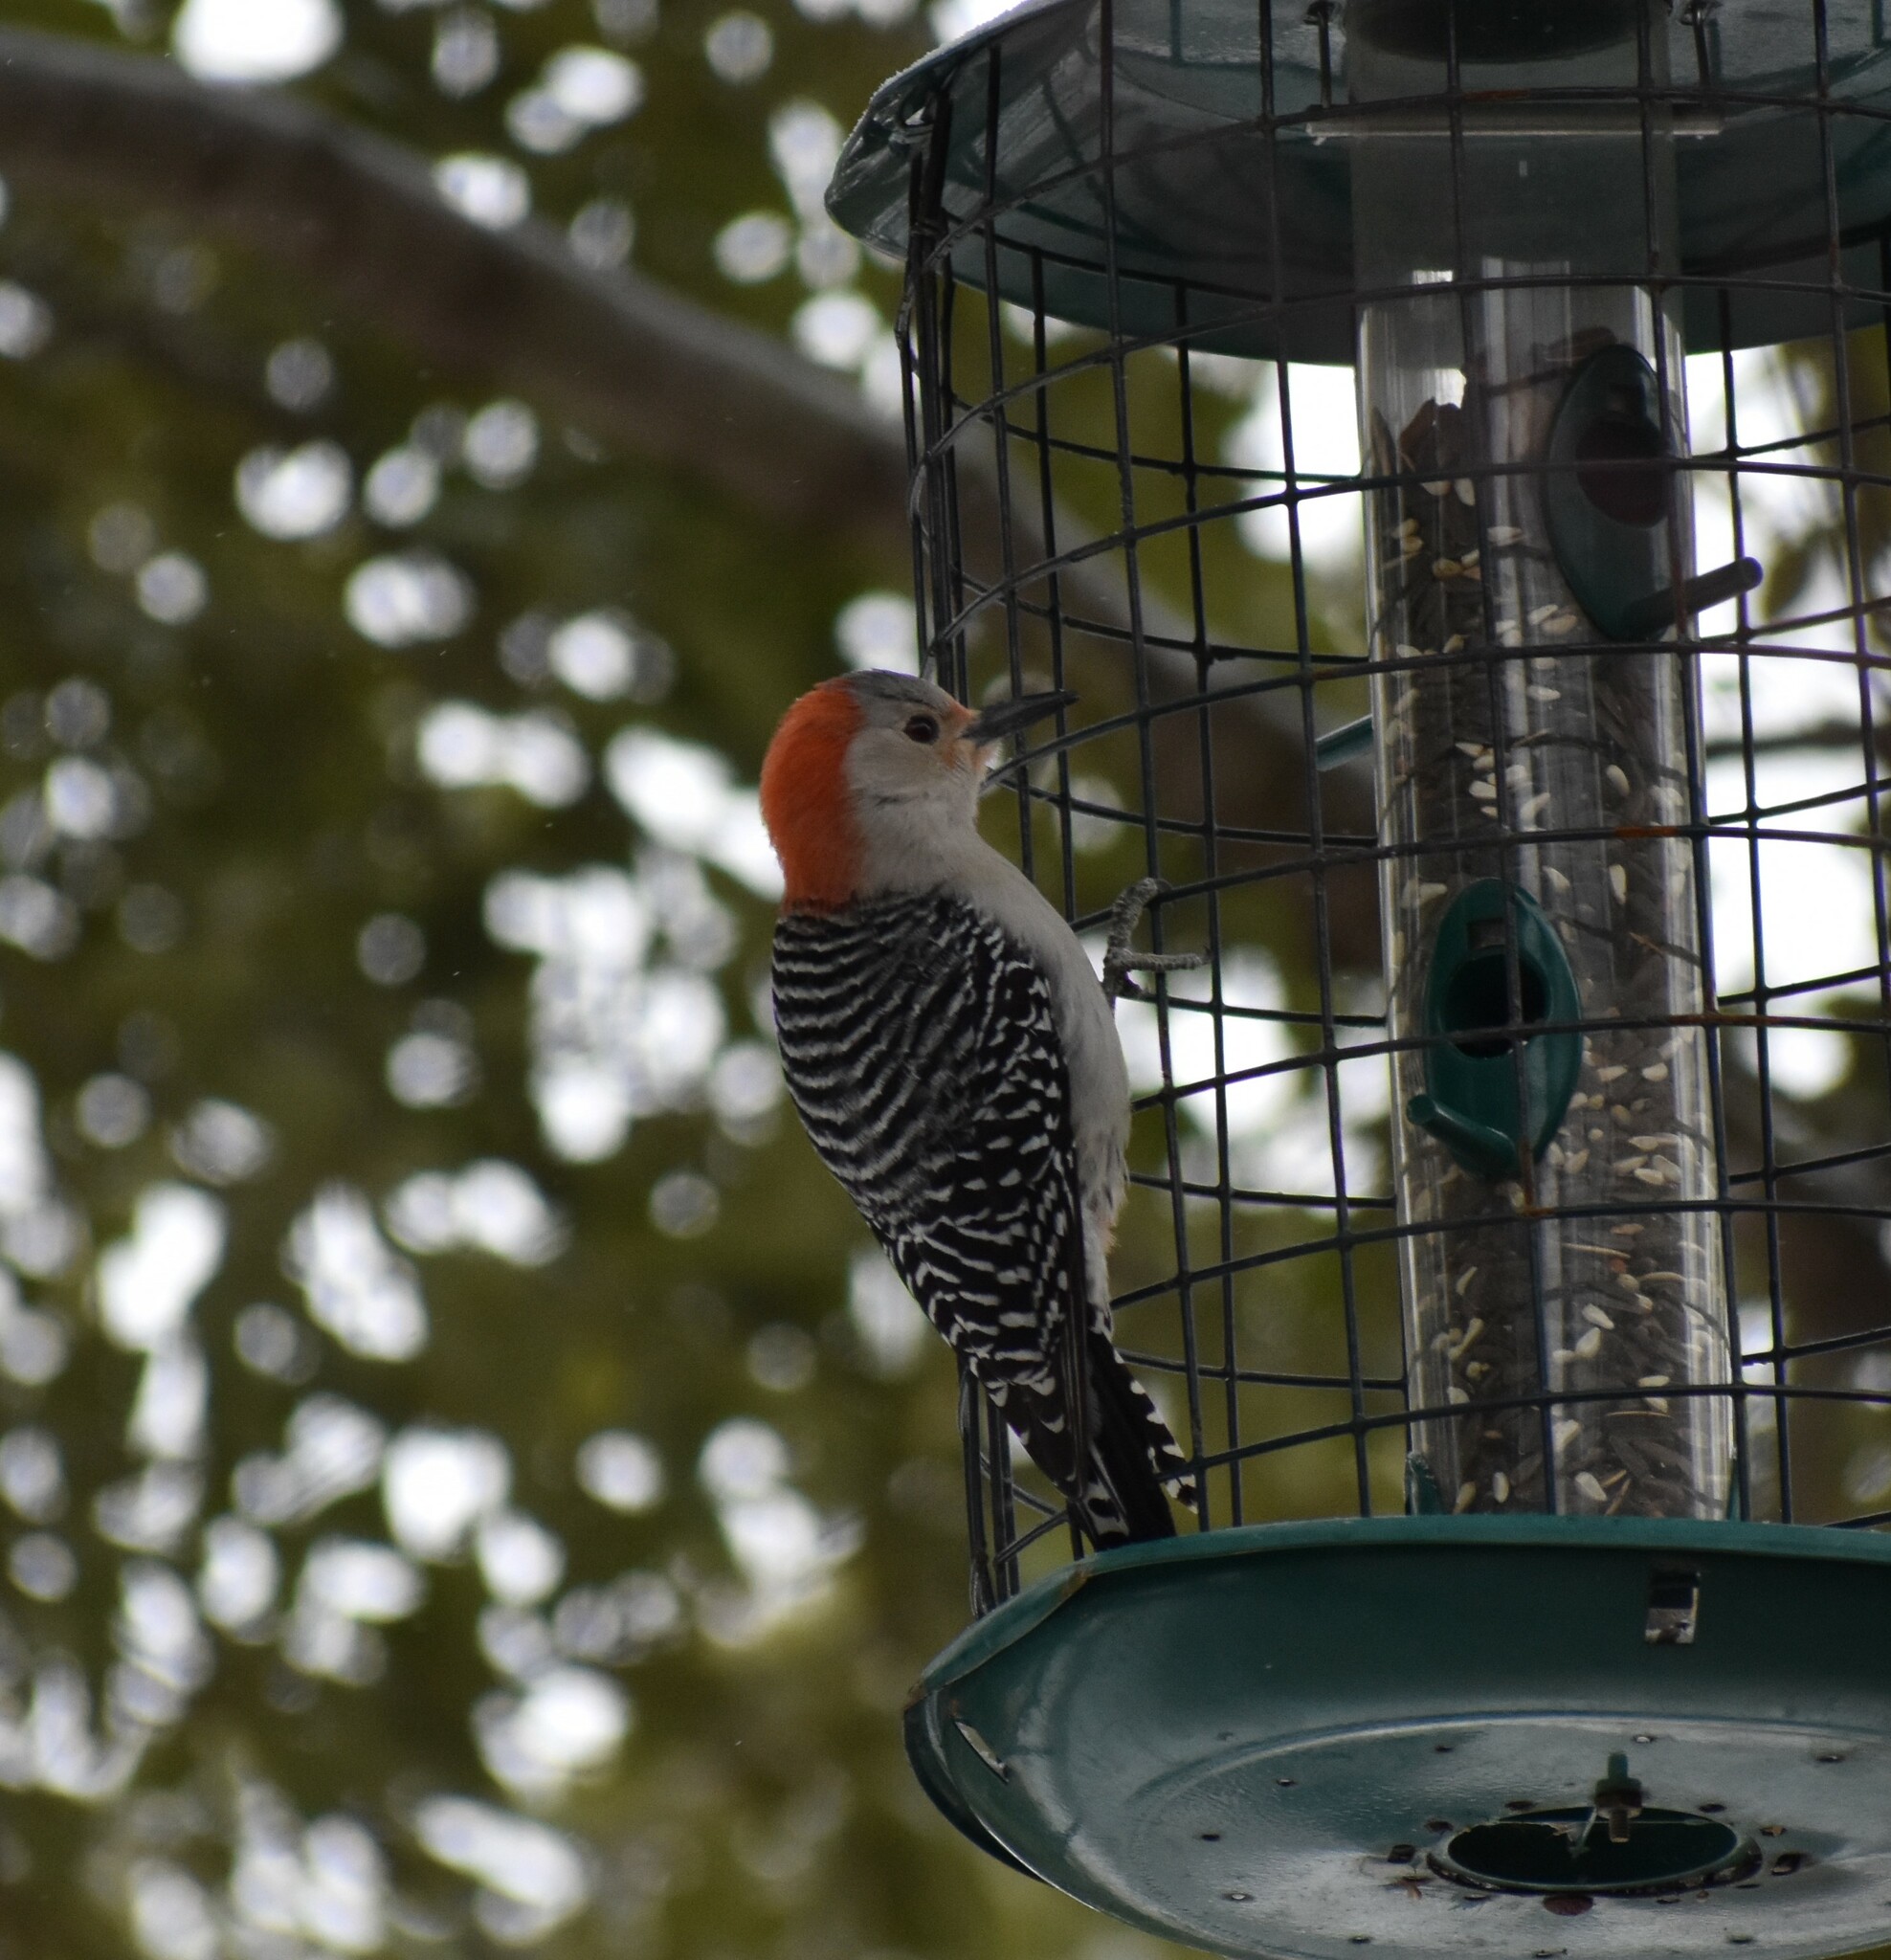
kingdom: Animalia
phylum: Chordata
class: Aves
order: Piciformes
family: Picidae
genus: Melanerpes
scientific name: Melanerpes carolinus
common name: Red-bellied woodpecker
